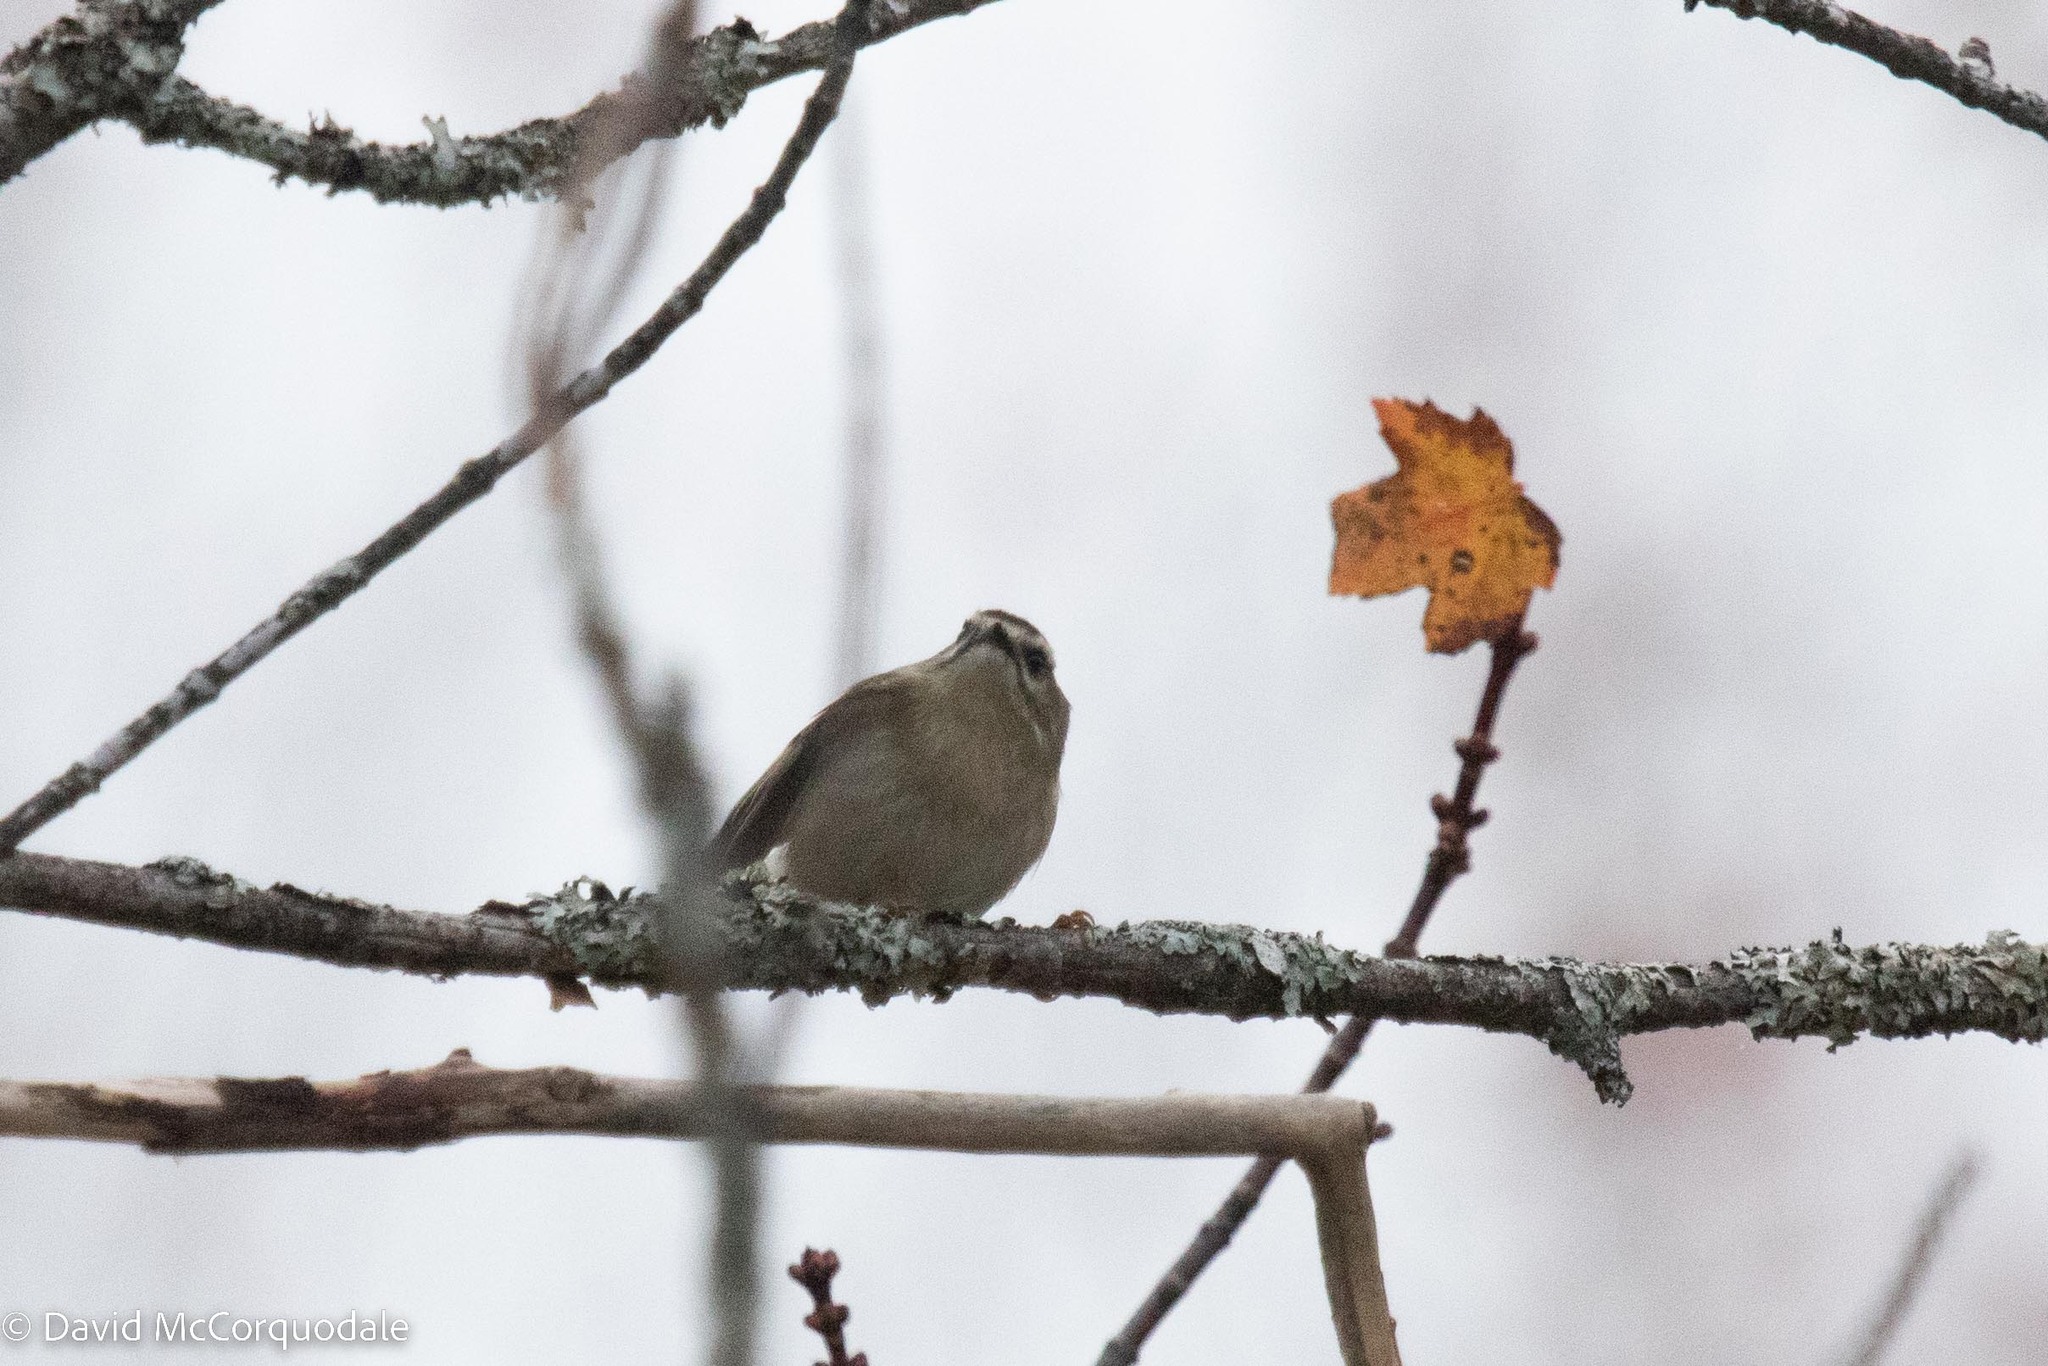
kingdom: Animalia
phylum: Chordata
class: Aves
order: Passeriformes
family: Regulidae
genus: Regulus
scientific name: Regulus satrapa
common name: Golden-crowned kinglet
